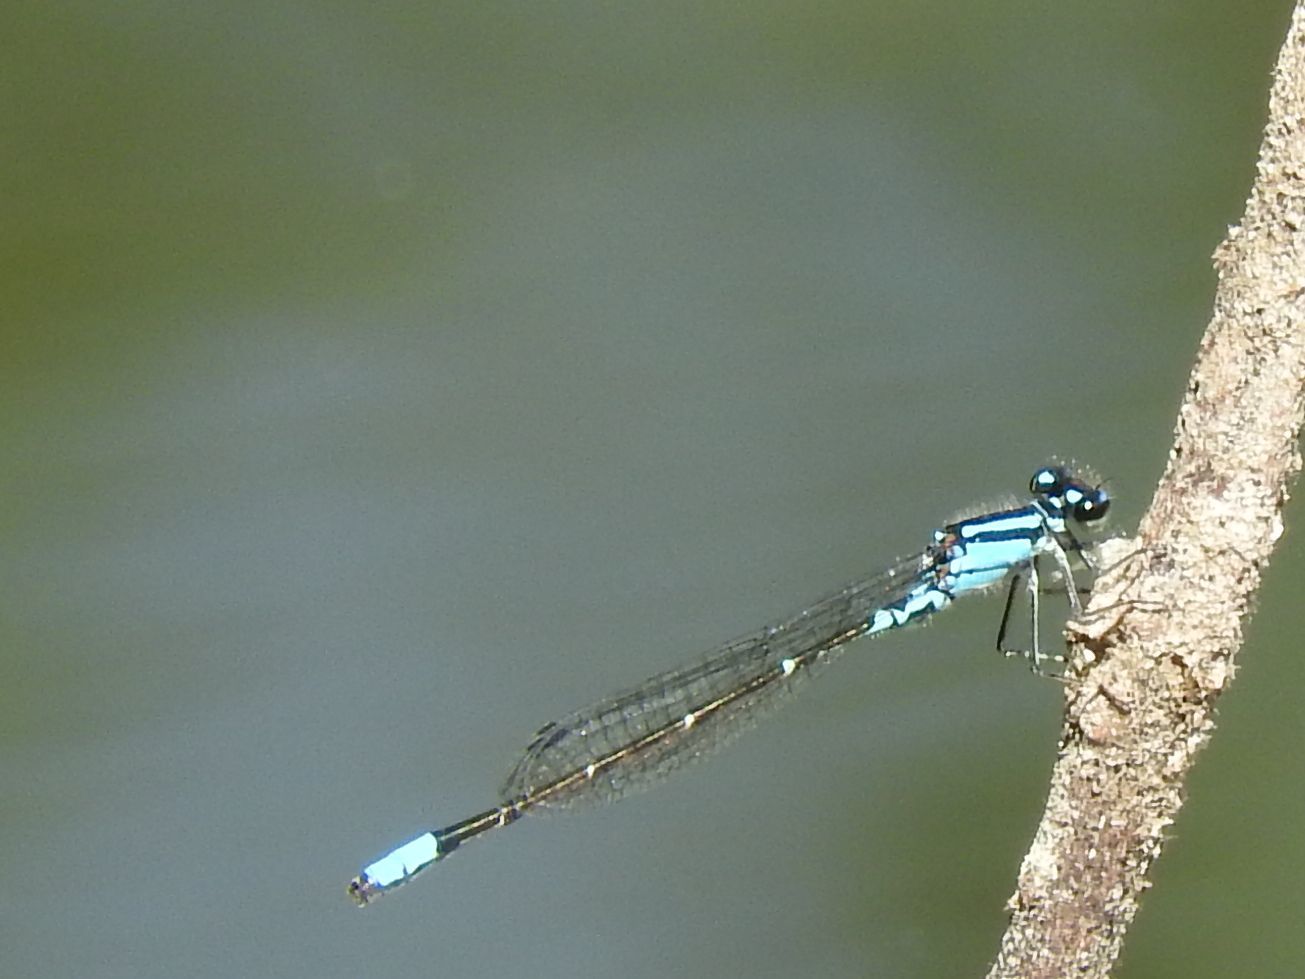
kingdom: Animalia
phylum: Arthropoda
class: Insecta
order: Odonata
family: Coenagrionidae
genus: Enallagma
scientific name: Enallagma geminatum
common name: Skimming bluet
